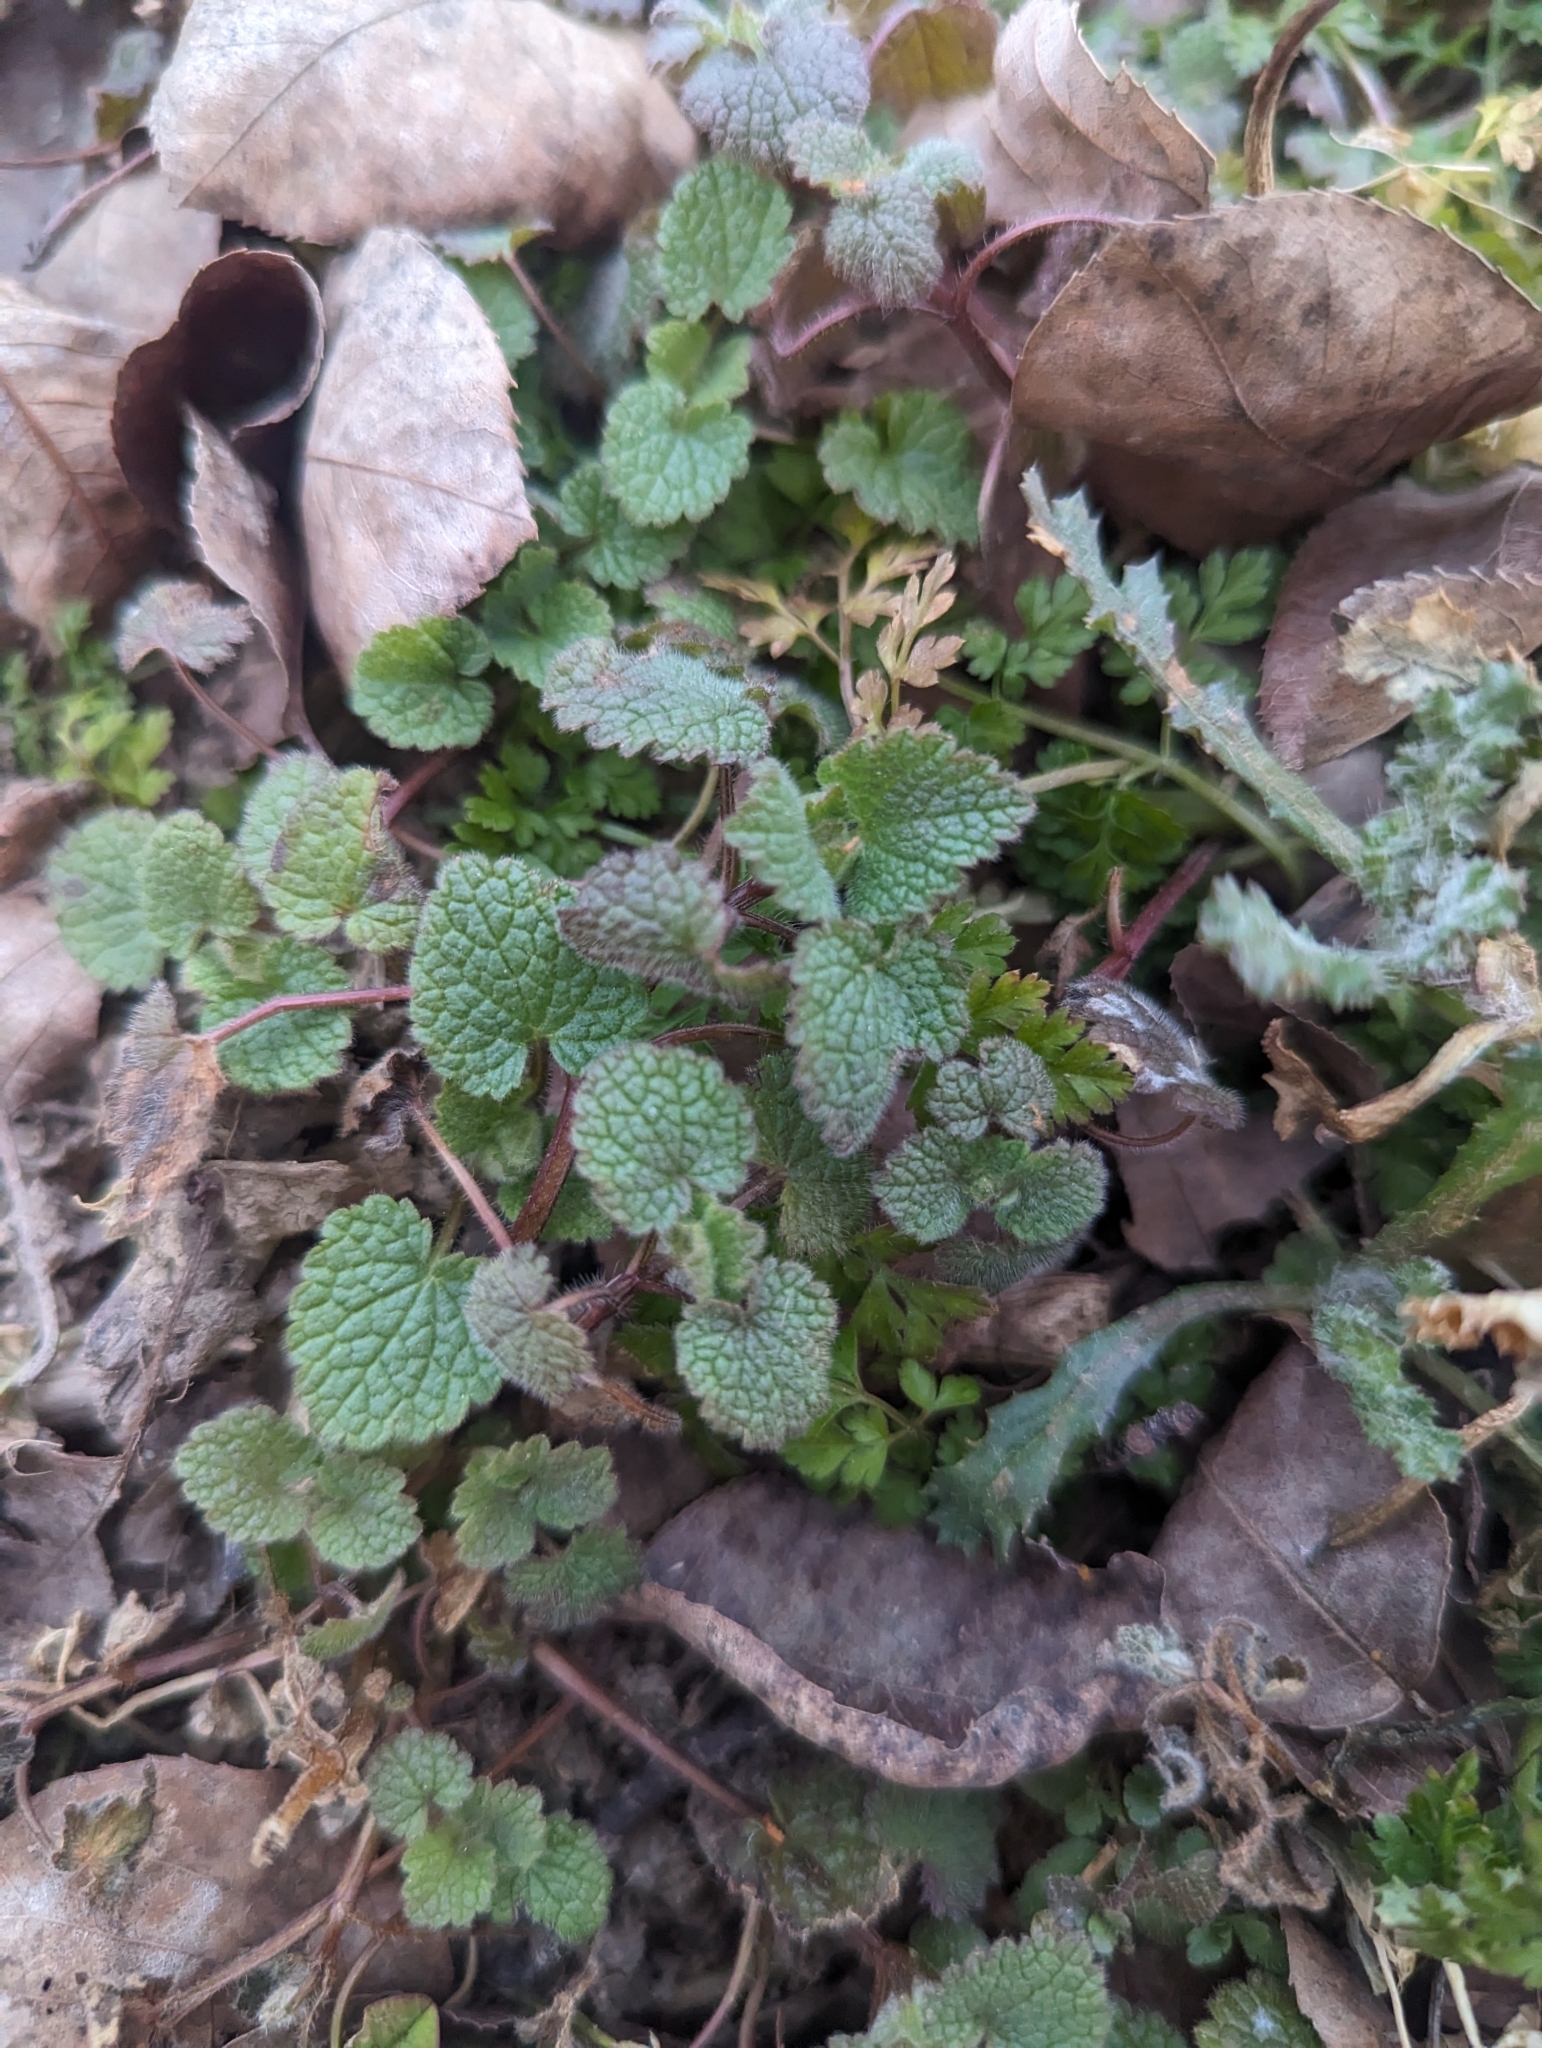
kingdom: Plantae
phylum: Tracheophyta
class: Magnoliopsida
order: Lamiales
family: Lamiaceae
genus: Lamium
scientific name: Lamium purpureum
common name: Red dead-nettle
